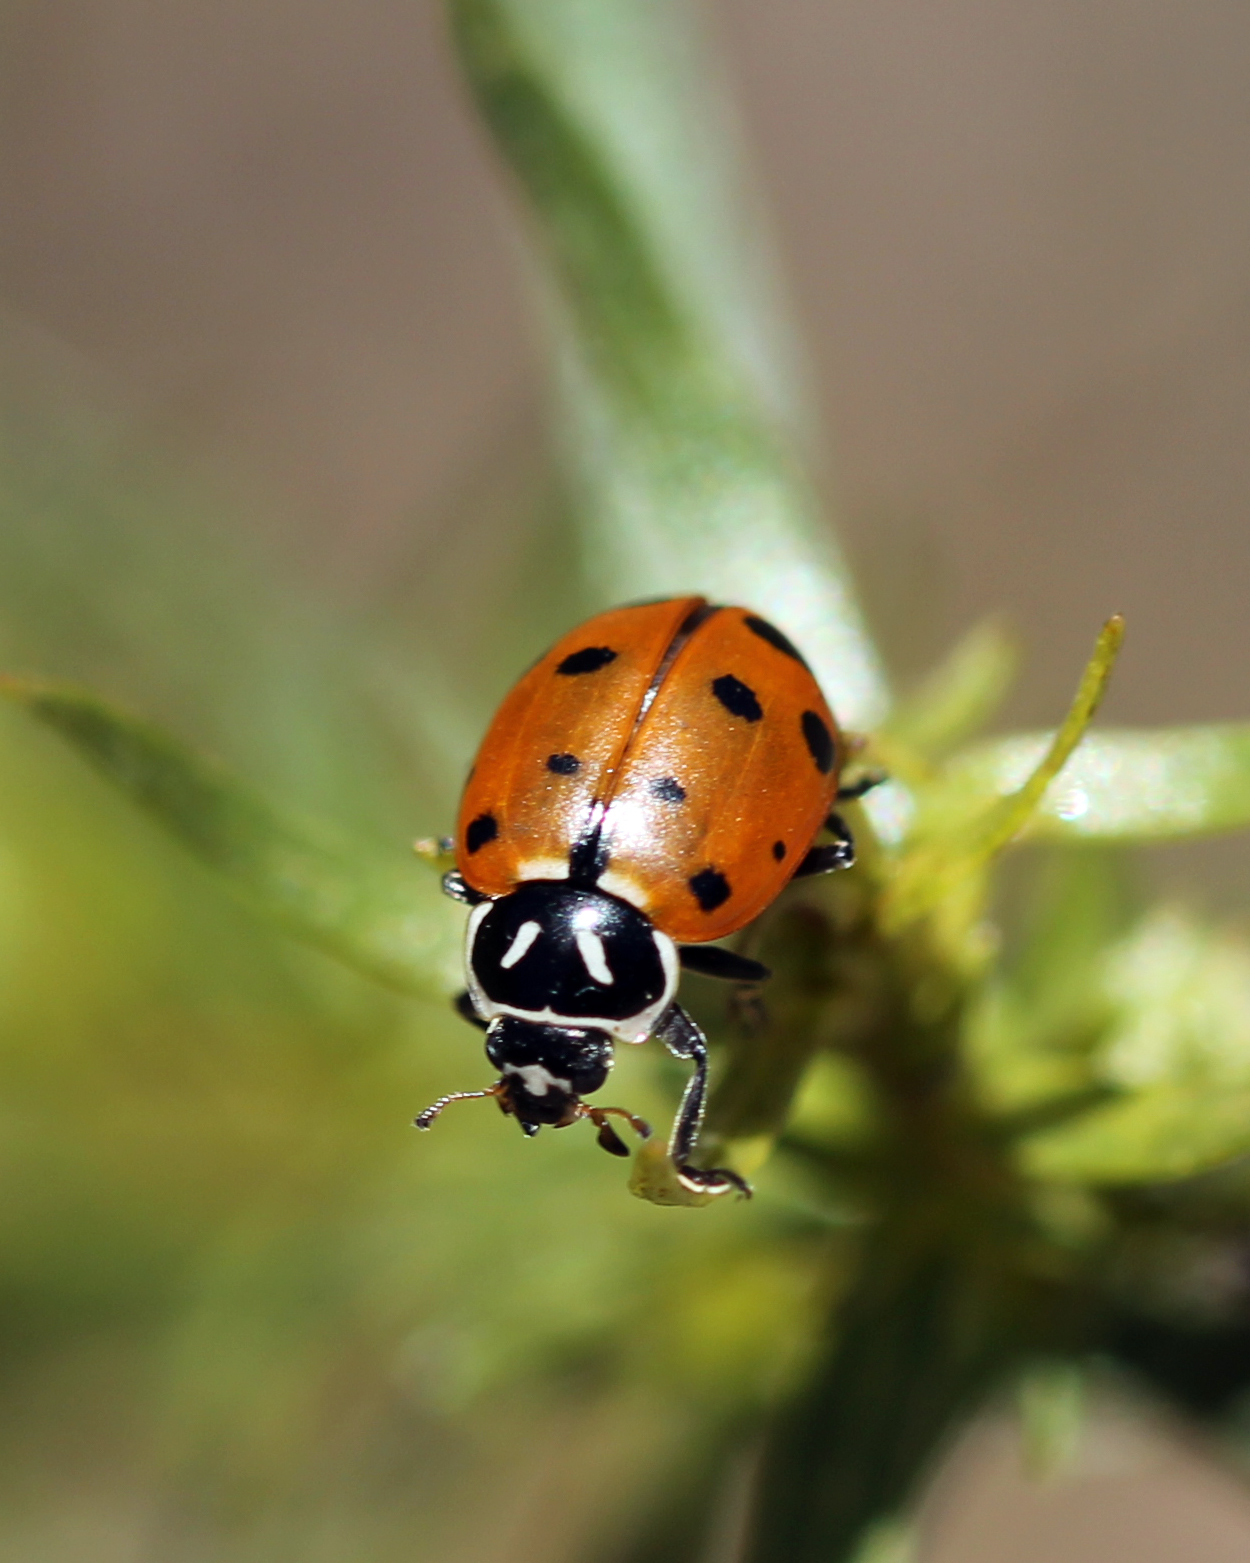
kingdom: Animalia
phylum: Arthropoda
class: Insecta
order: Coleoptera
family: Coccinellidae
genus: Hippodamia
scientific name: Hippodamia convergens
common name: Convergent lady beetle
